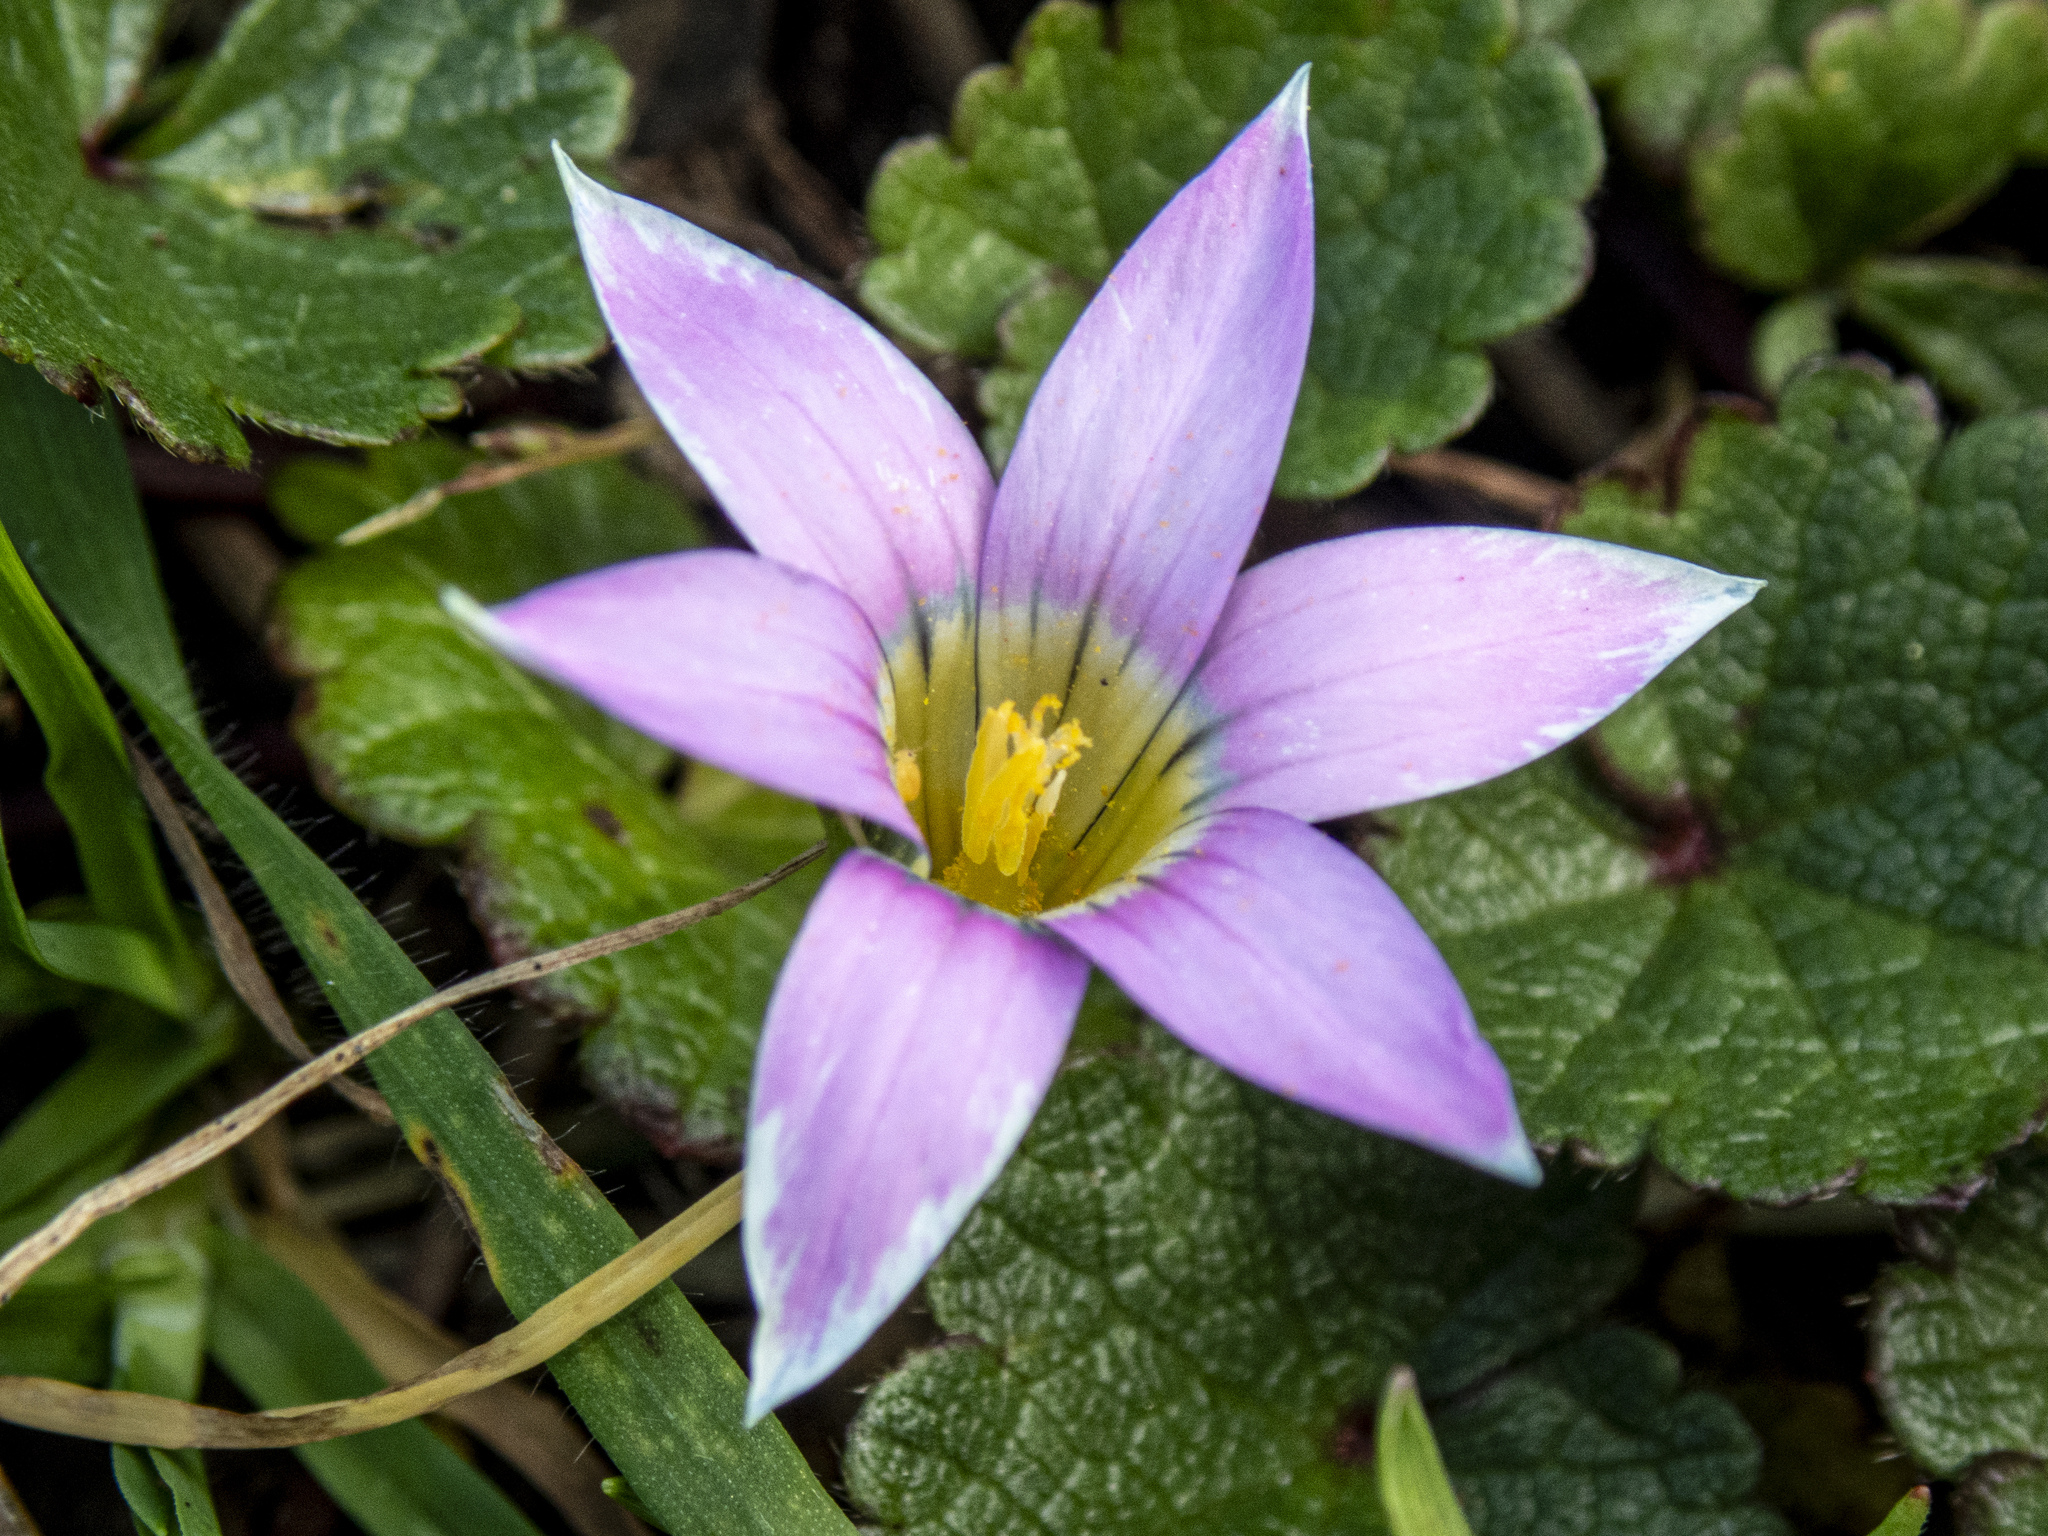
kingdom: Plantae
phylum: Tracheophyta
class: Liliopsida
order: Asparagales
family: Iridaceae
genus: Romulea
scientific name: Romulea rosea
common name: Oniongrass
